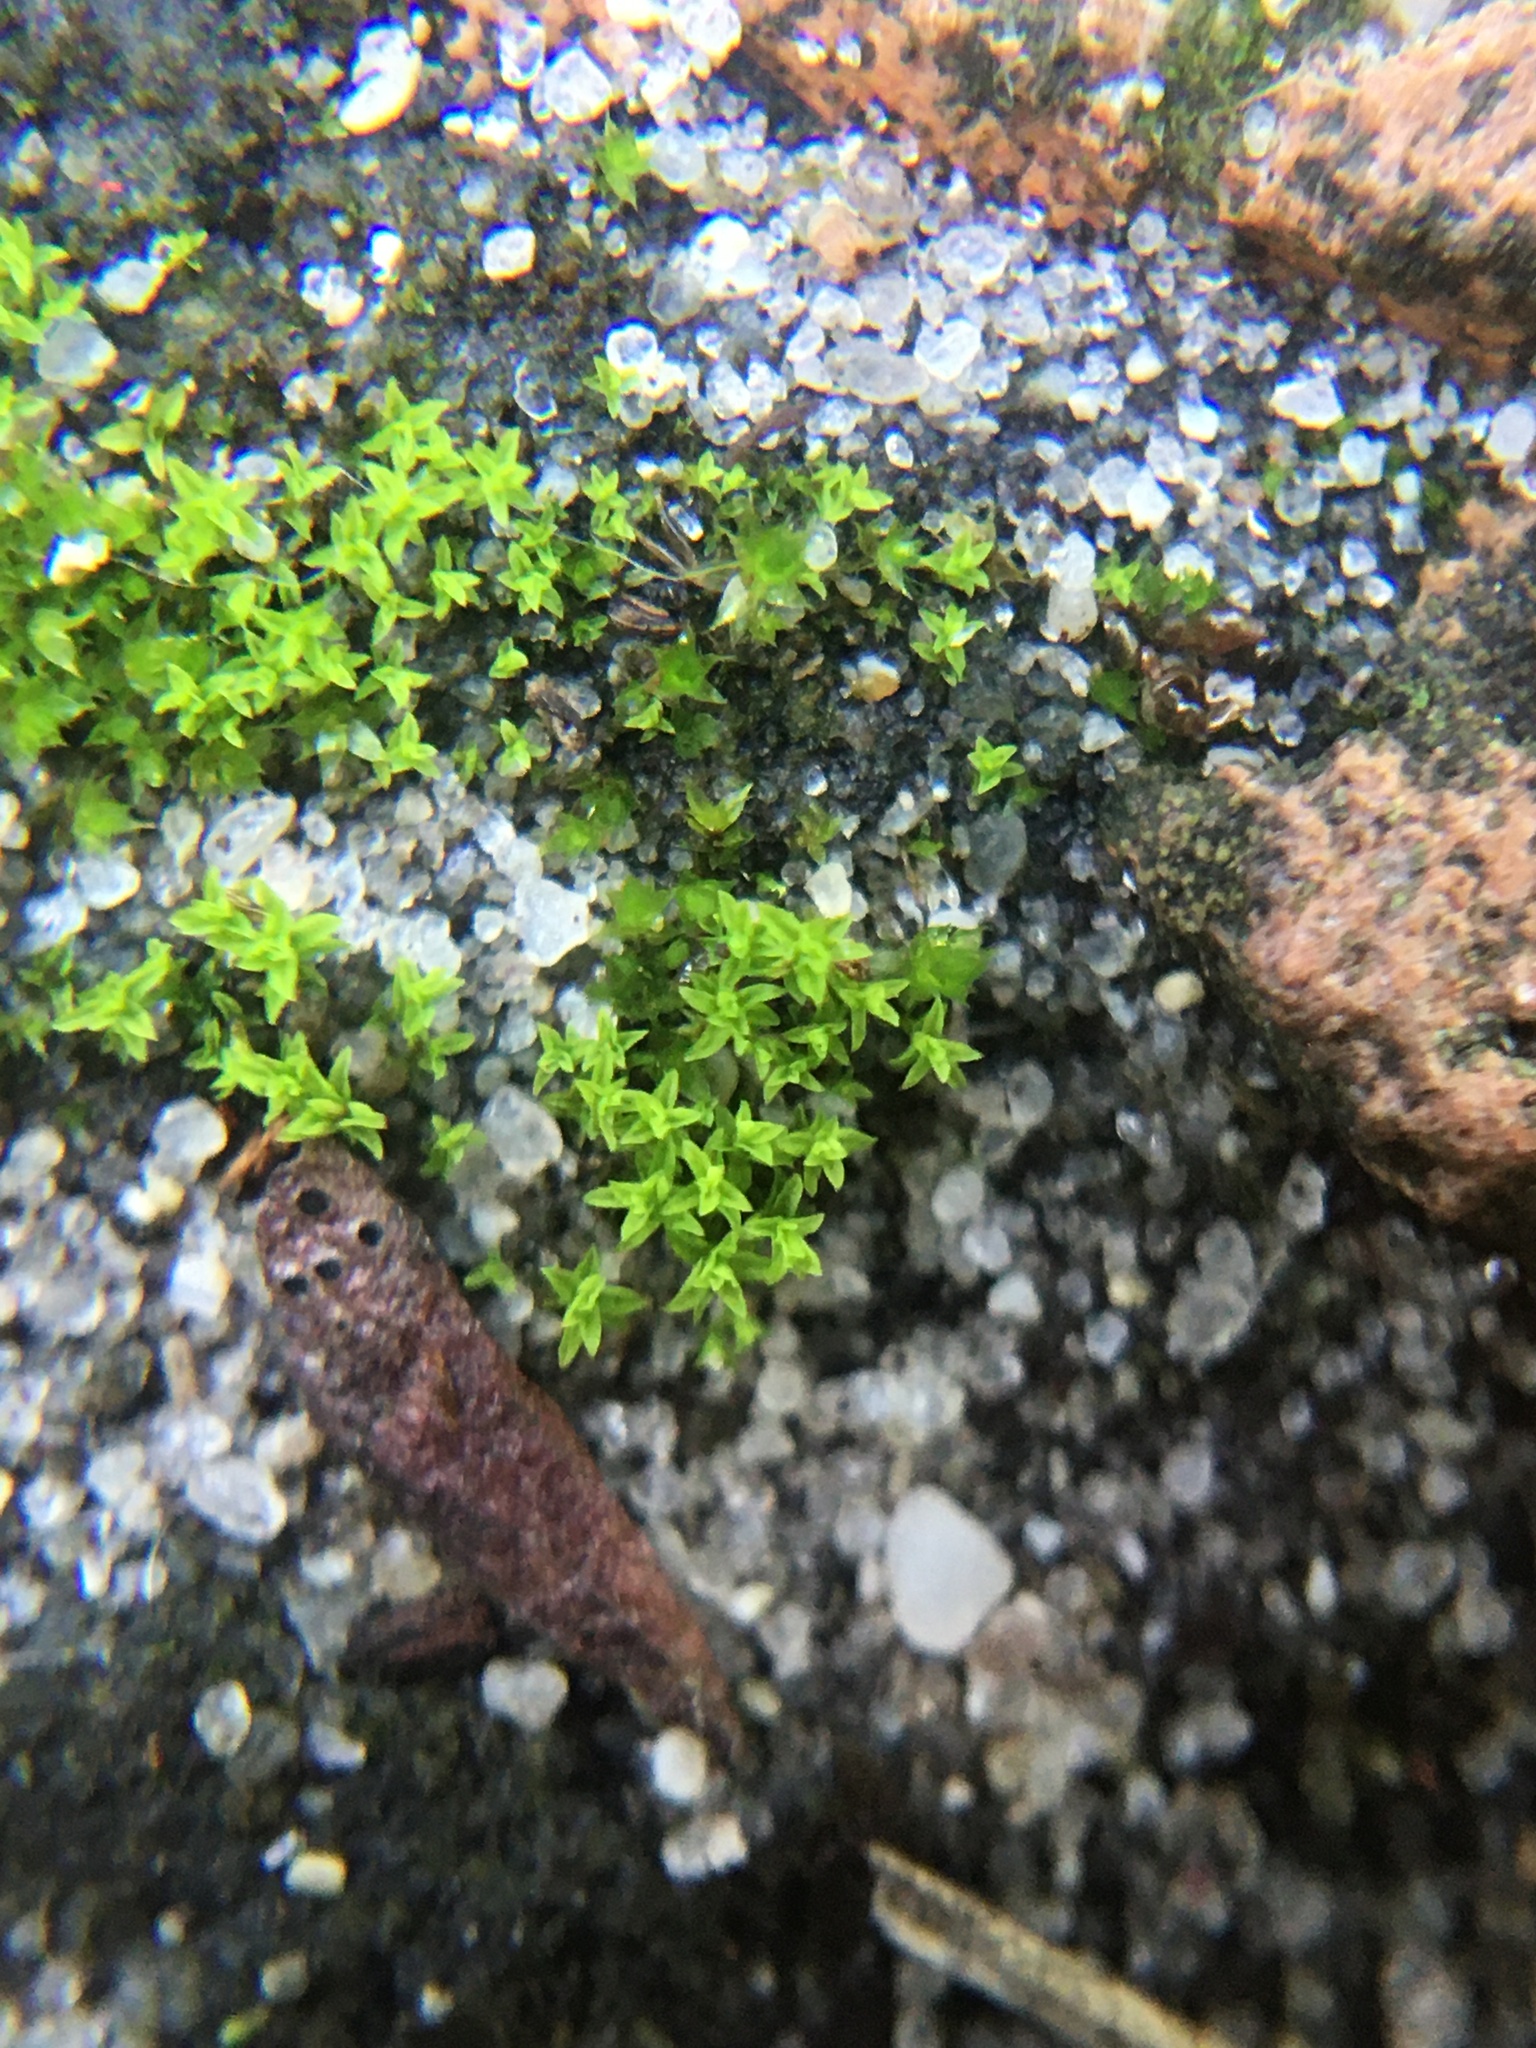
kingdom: Plantae
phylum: Bryophyta
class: Bryopsida
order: Pottiales
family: Pottiaceae
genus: Streblotrichum
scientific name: Streblotrichum convolutum
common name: Lesser bird's-claw beard-moss
